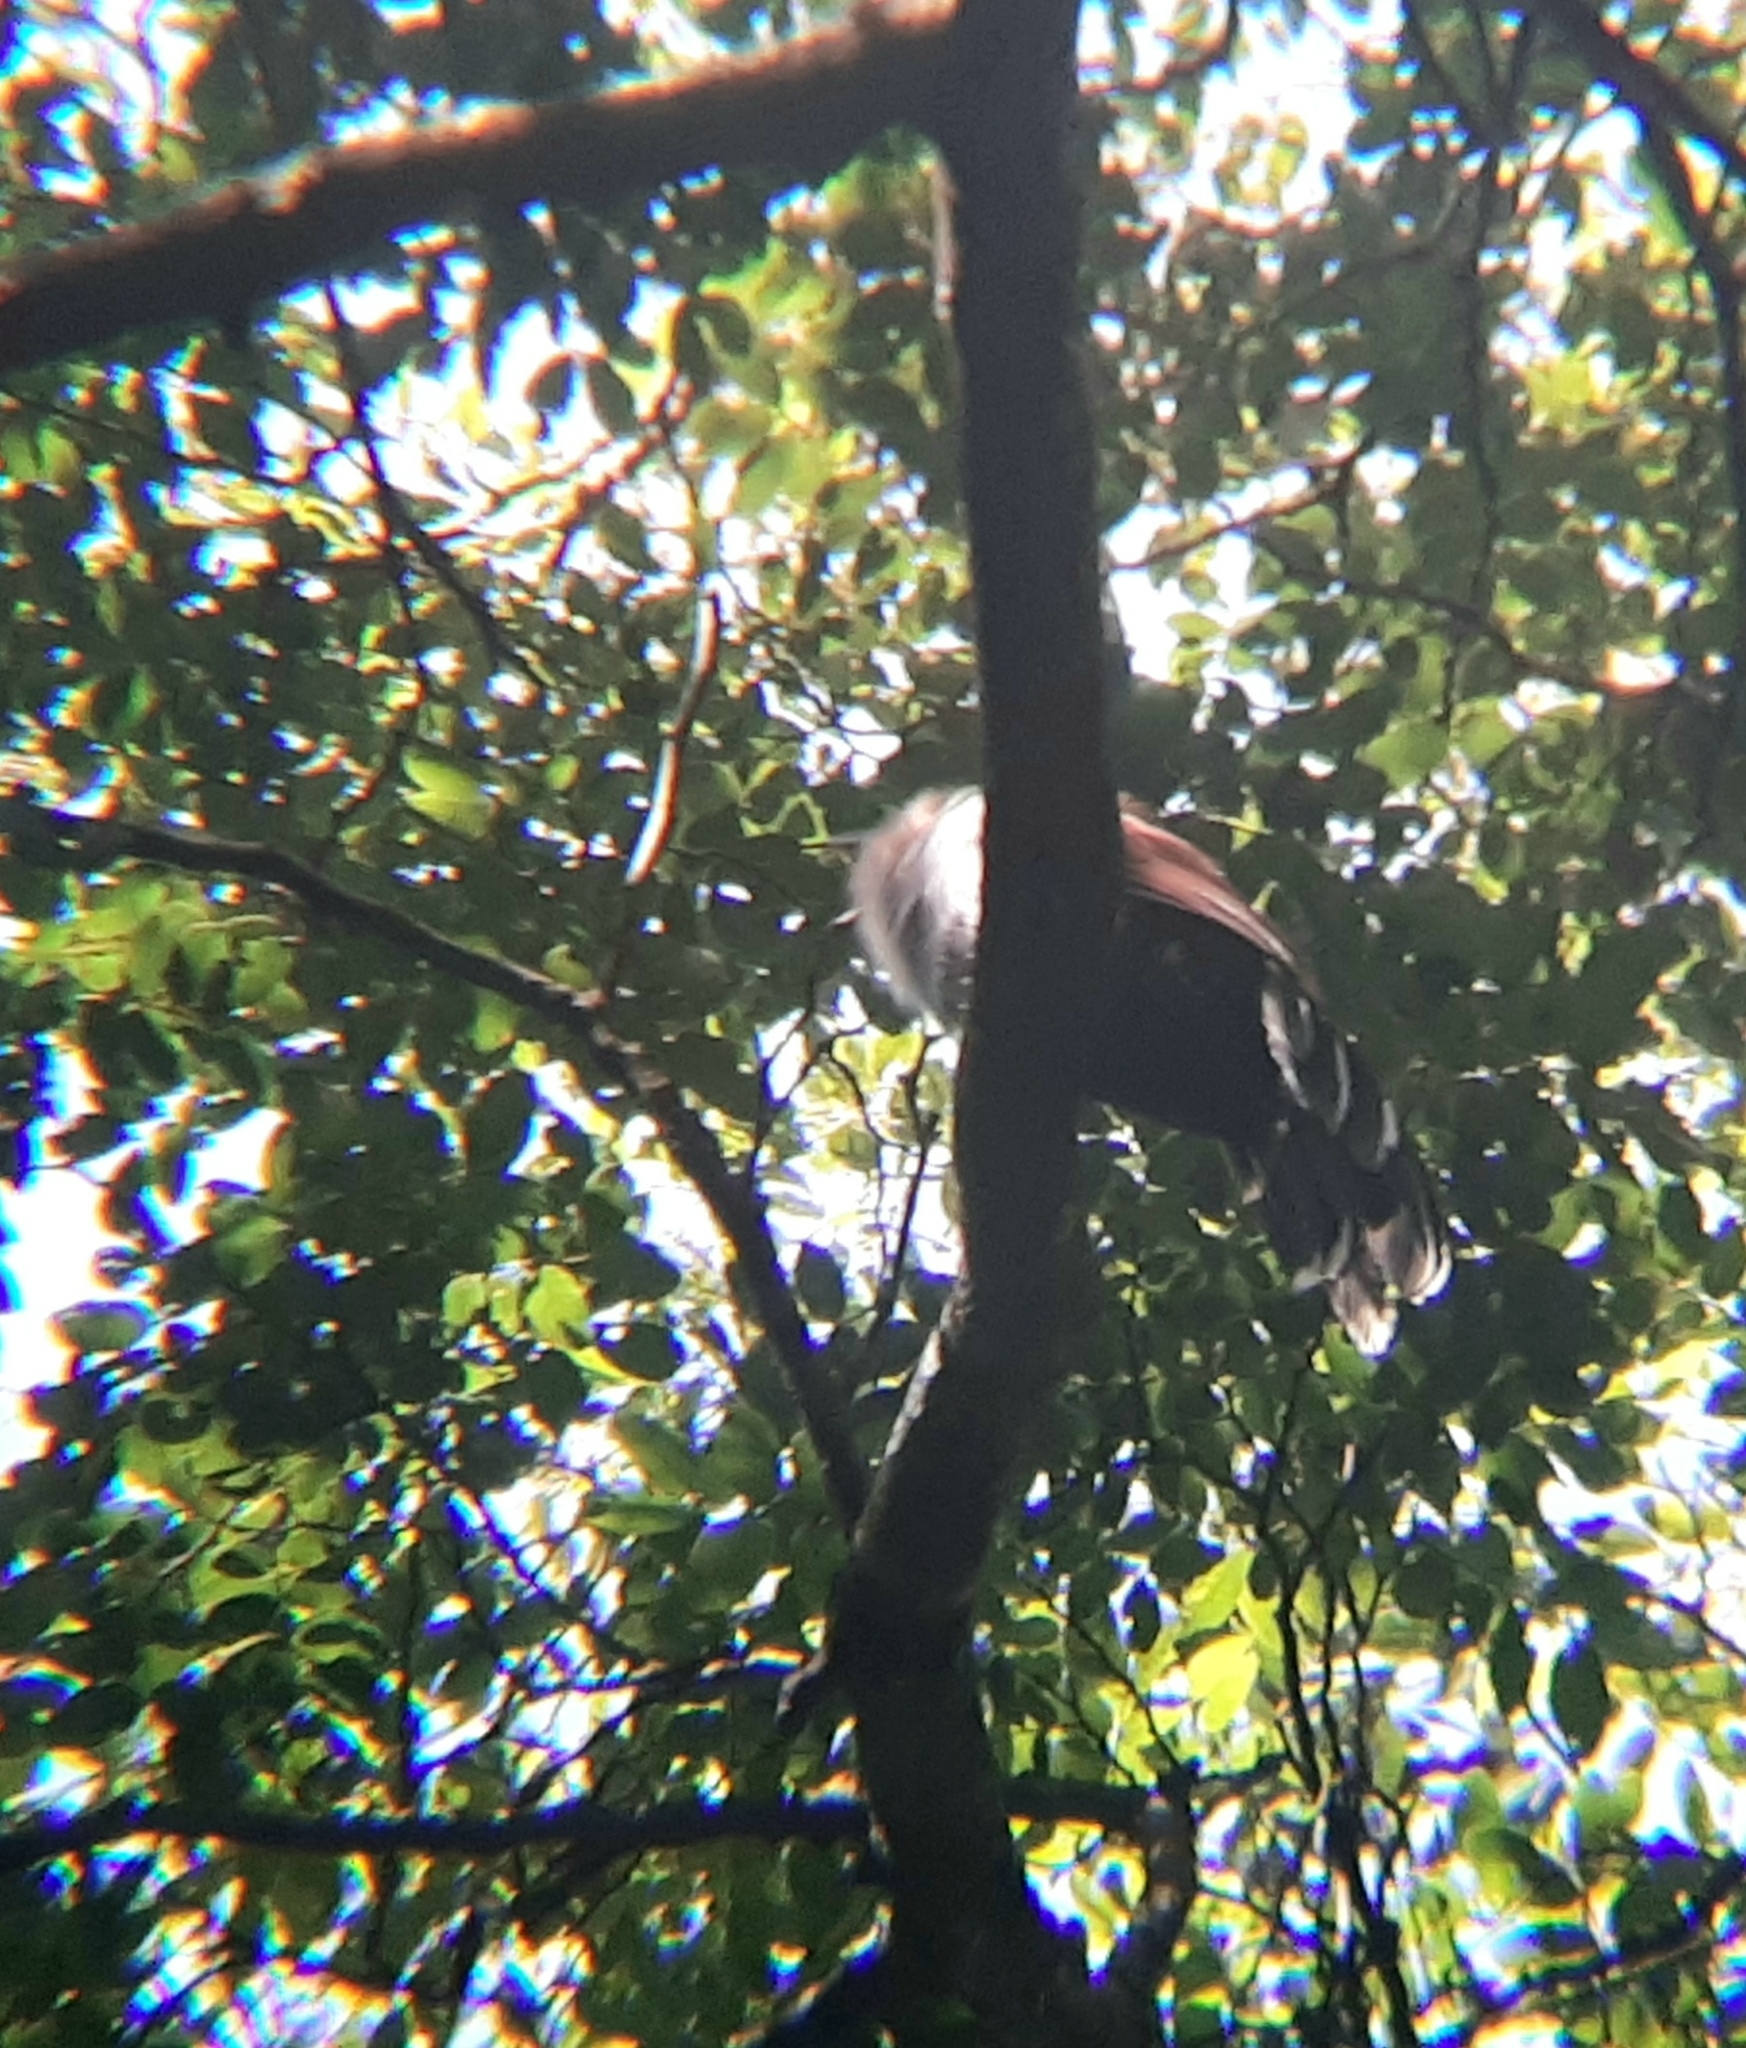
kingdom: Animalia
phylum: Chordata
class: Aves
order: Cuculiformes
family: Cuculidae
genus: Piaya
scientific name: Piaya cayana
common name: Squirrel cuckoo
